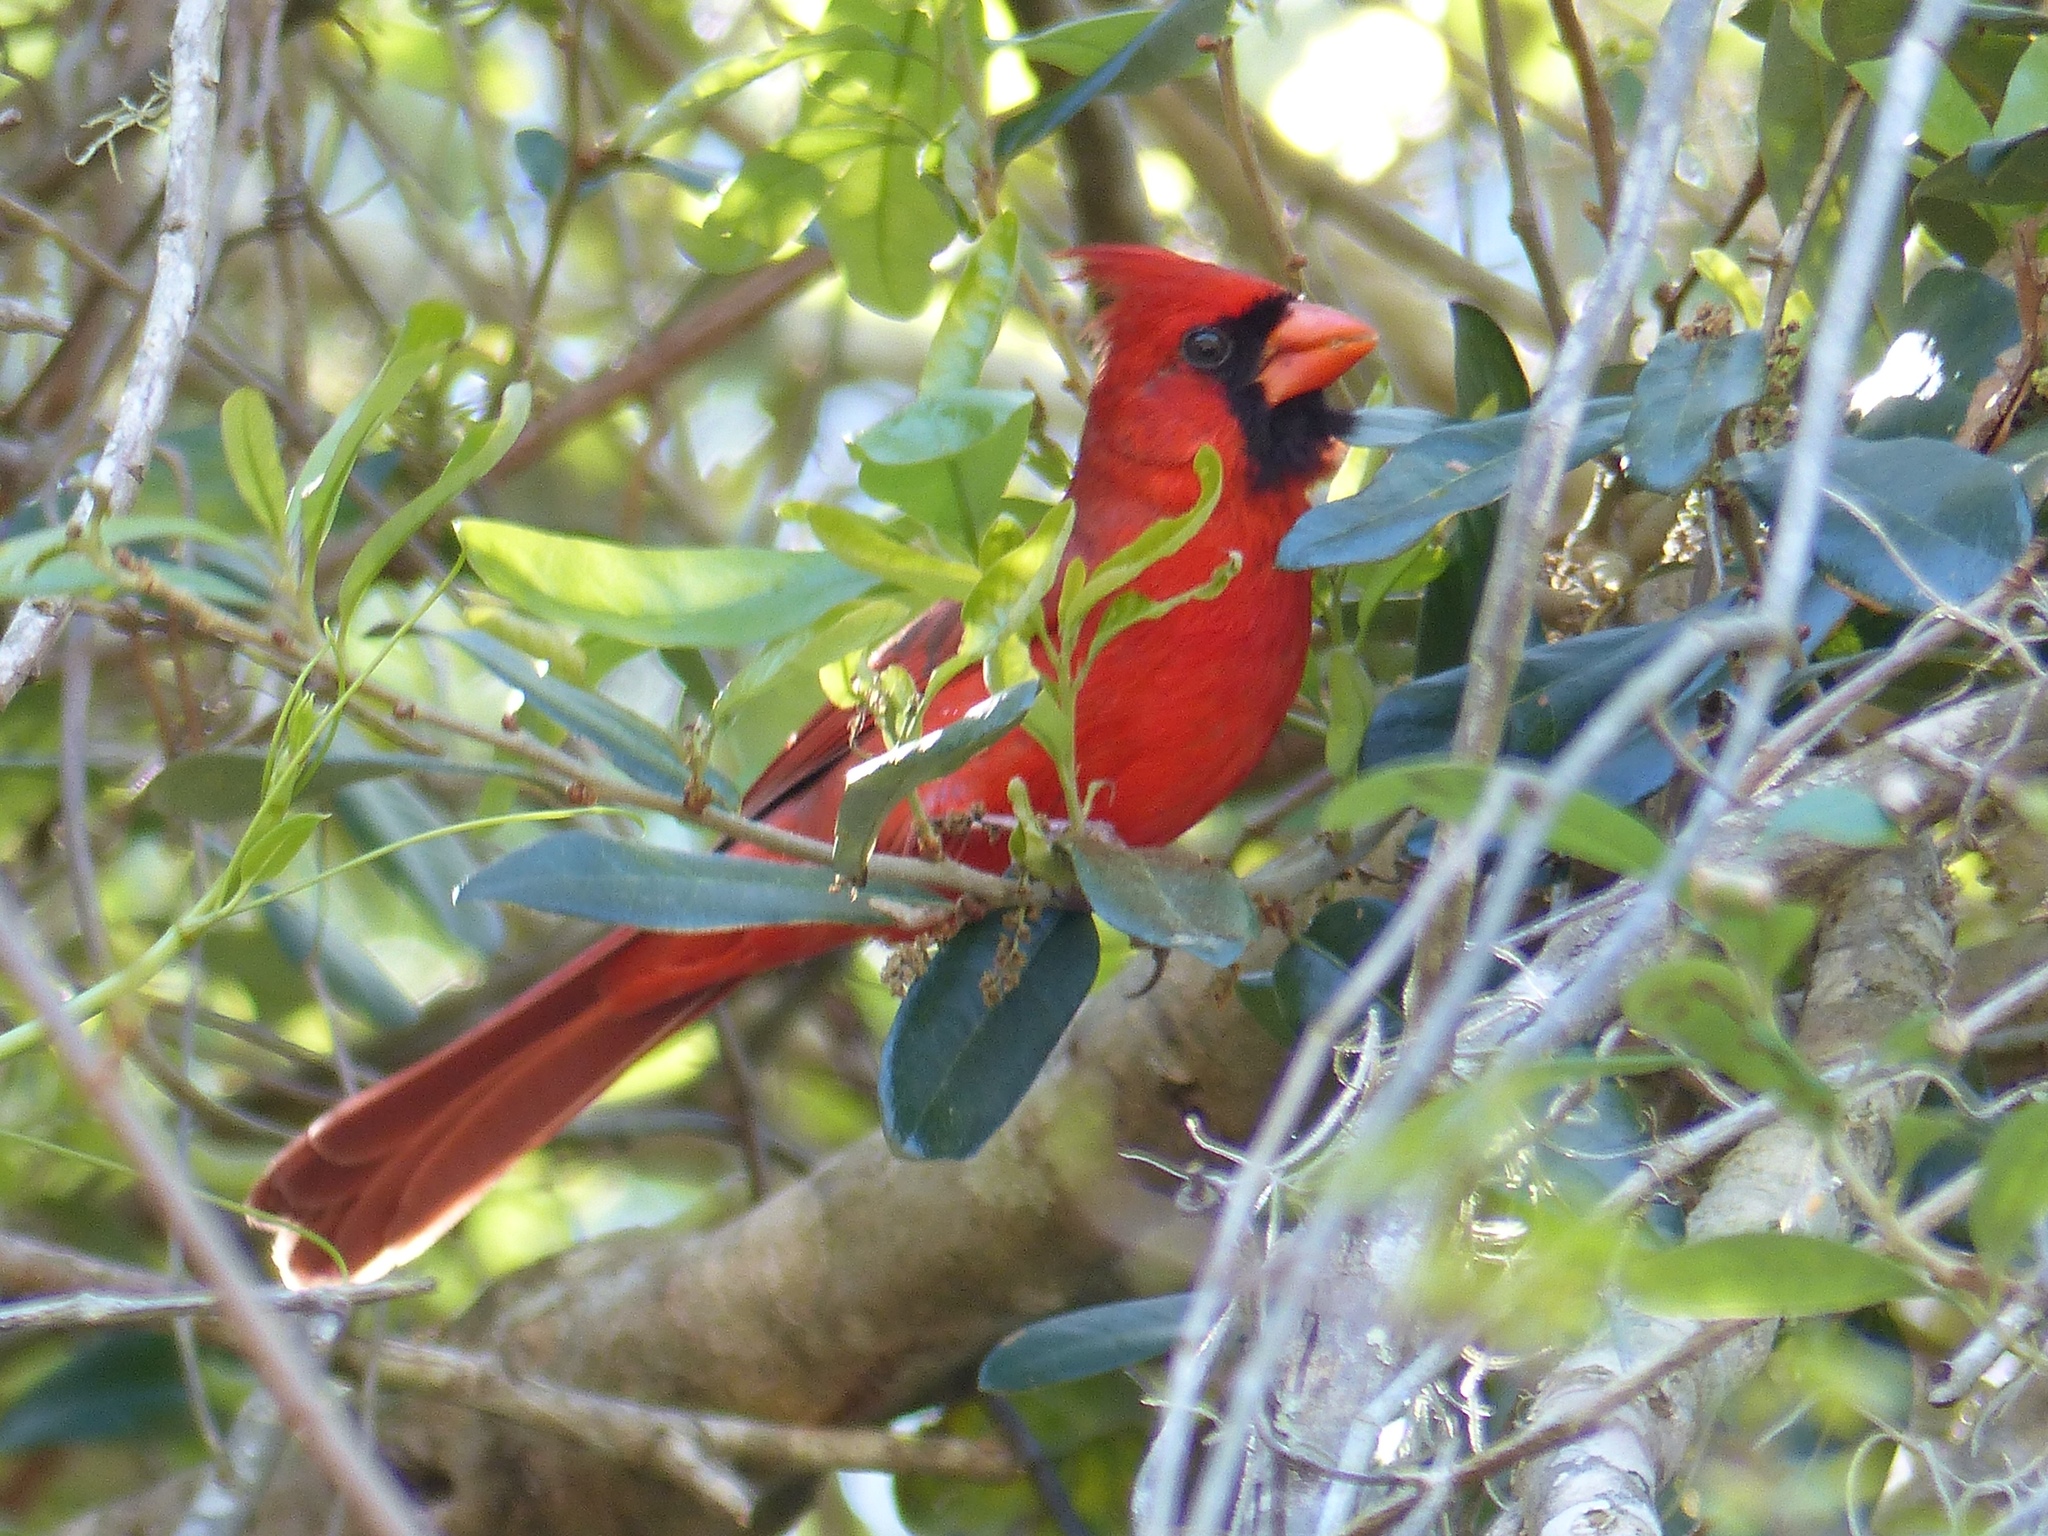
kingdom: Animalia
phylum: Chordata
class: Aves
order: Passeriformes
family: Cardinalidae
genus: Cardinalis
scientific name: Cardinalis cardinalis
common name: Northern cardinal
